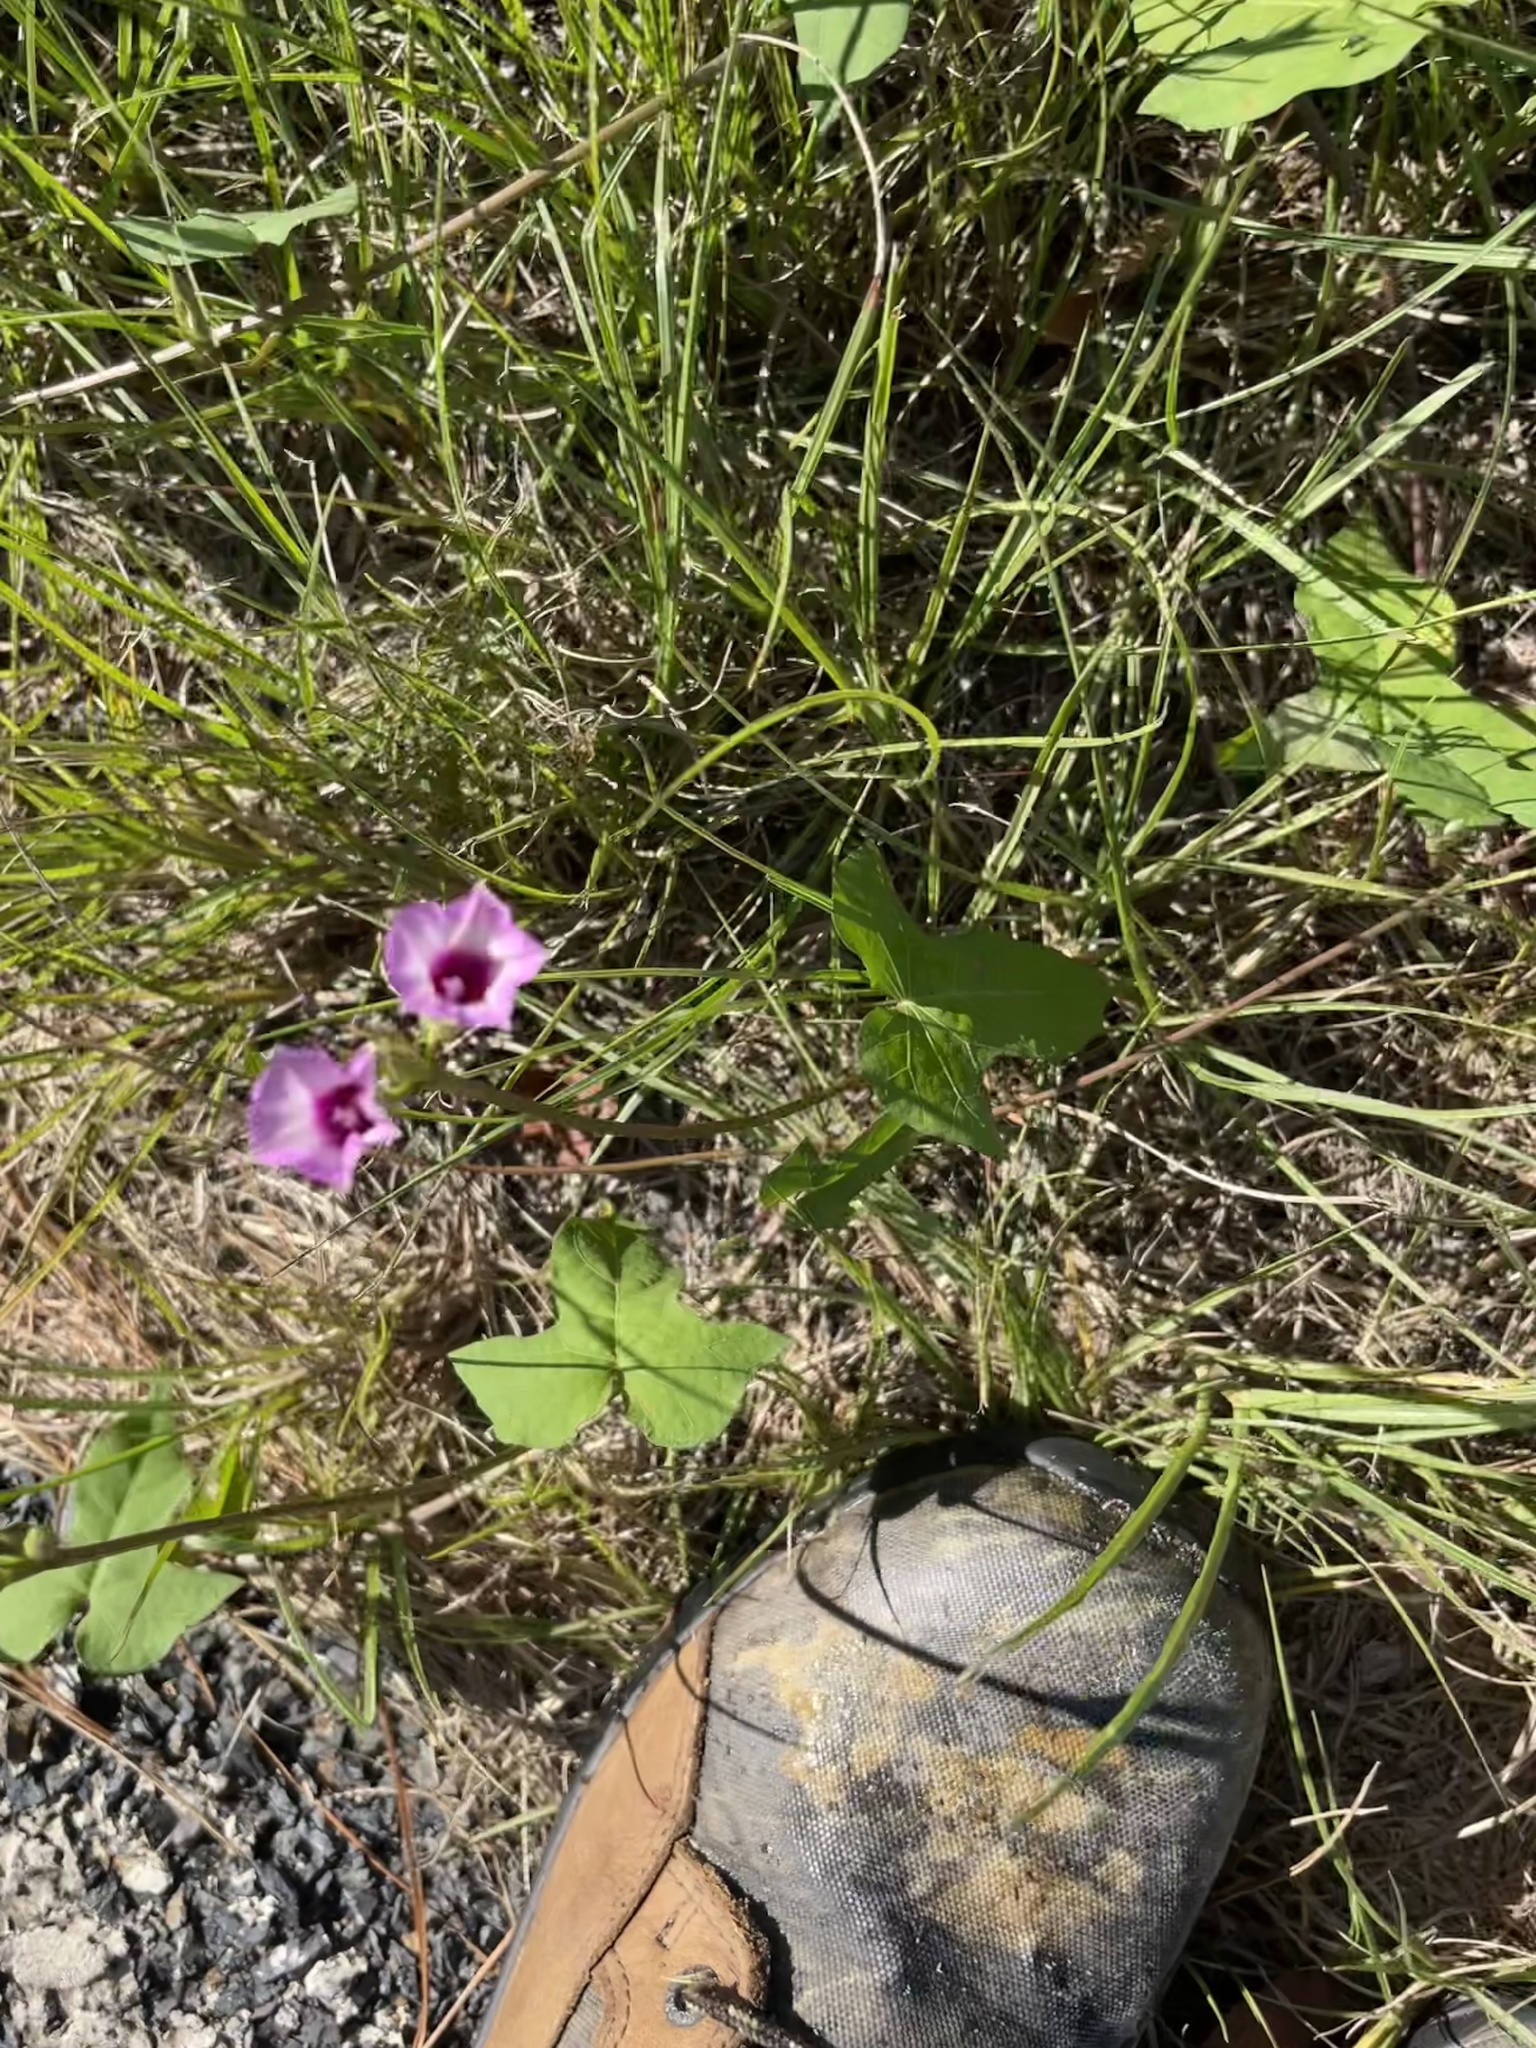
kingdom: Plantae
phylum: Tracheophyta
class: Magnoliopsida
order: Solanales
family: Convolvulaceae
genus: Ipomoea
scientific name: Ipomoea triloba
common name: Little-bell
